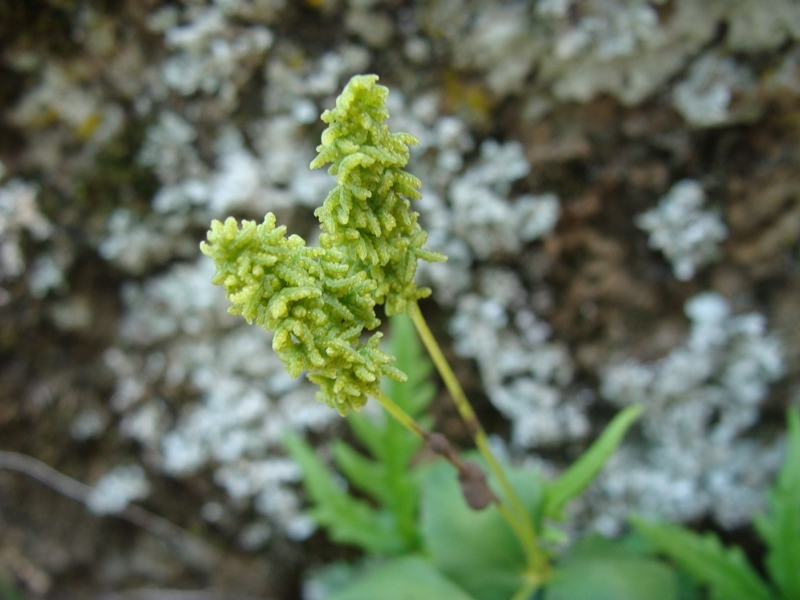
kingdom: Plantae
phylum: Tracheophyta
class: Polypodiopsida
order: Schizaeales
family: Anemiaceae
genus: Anemia
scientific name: Anemia adiantifolia
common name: Pine fern
